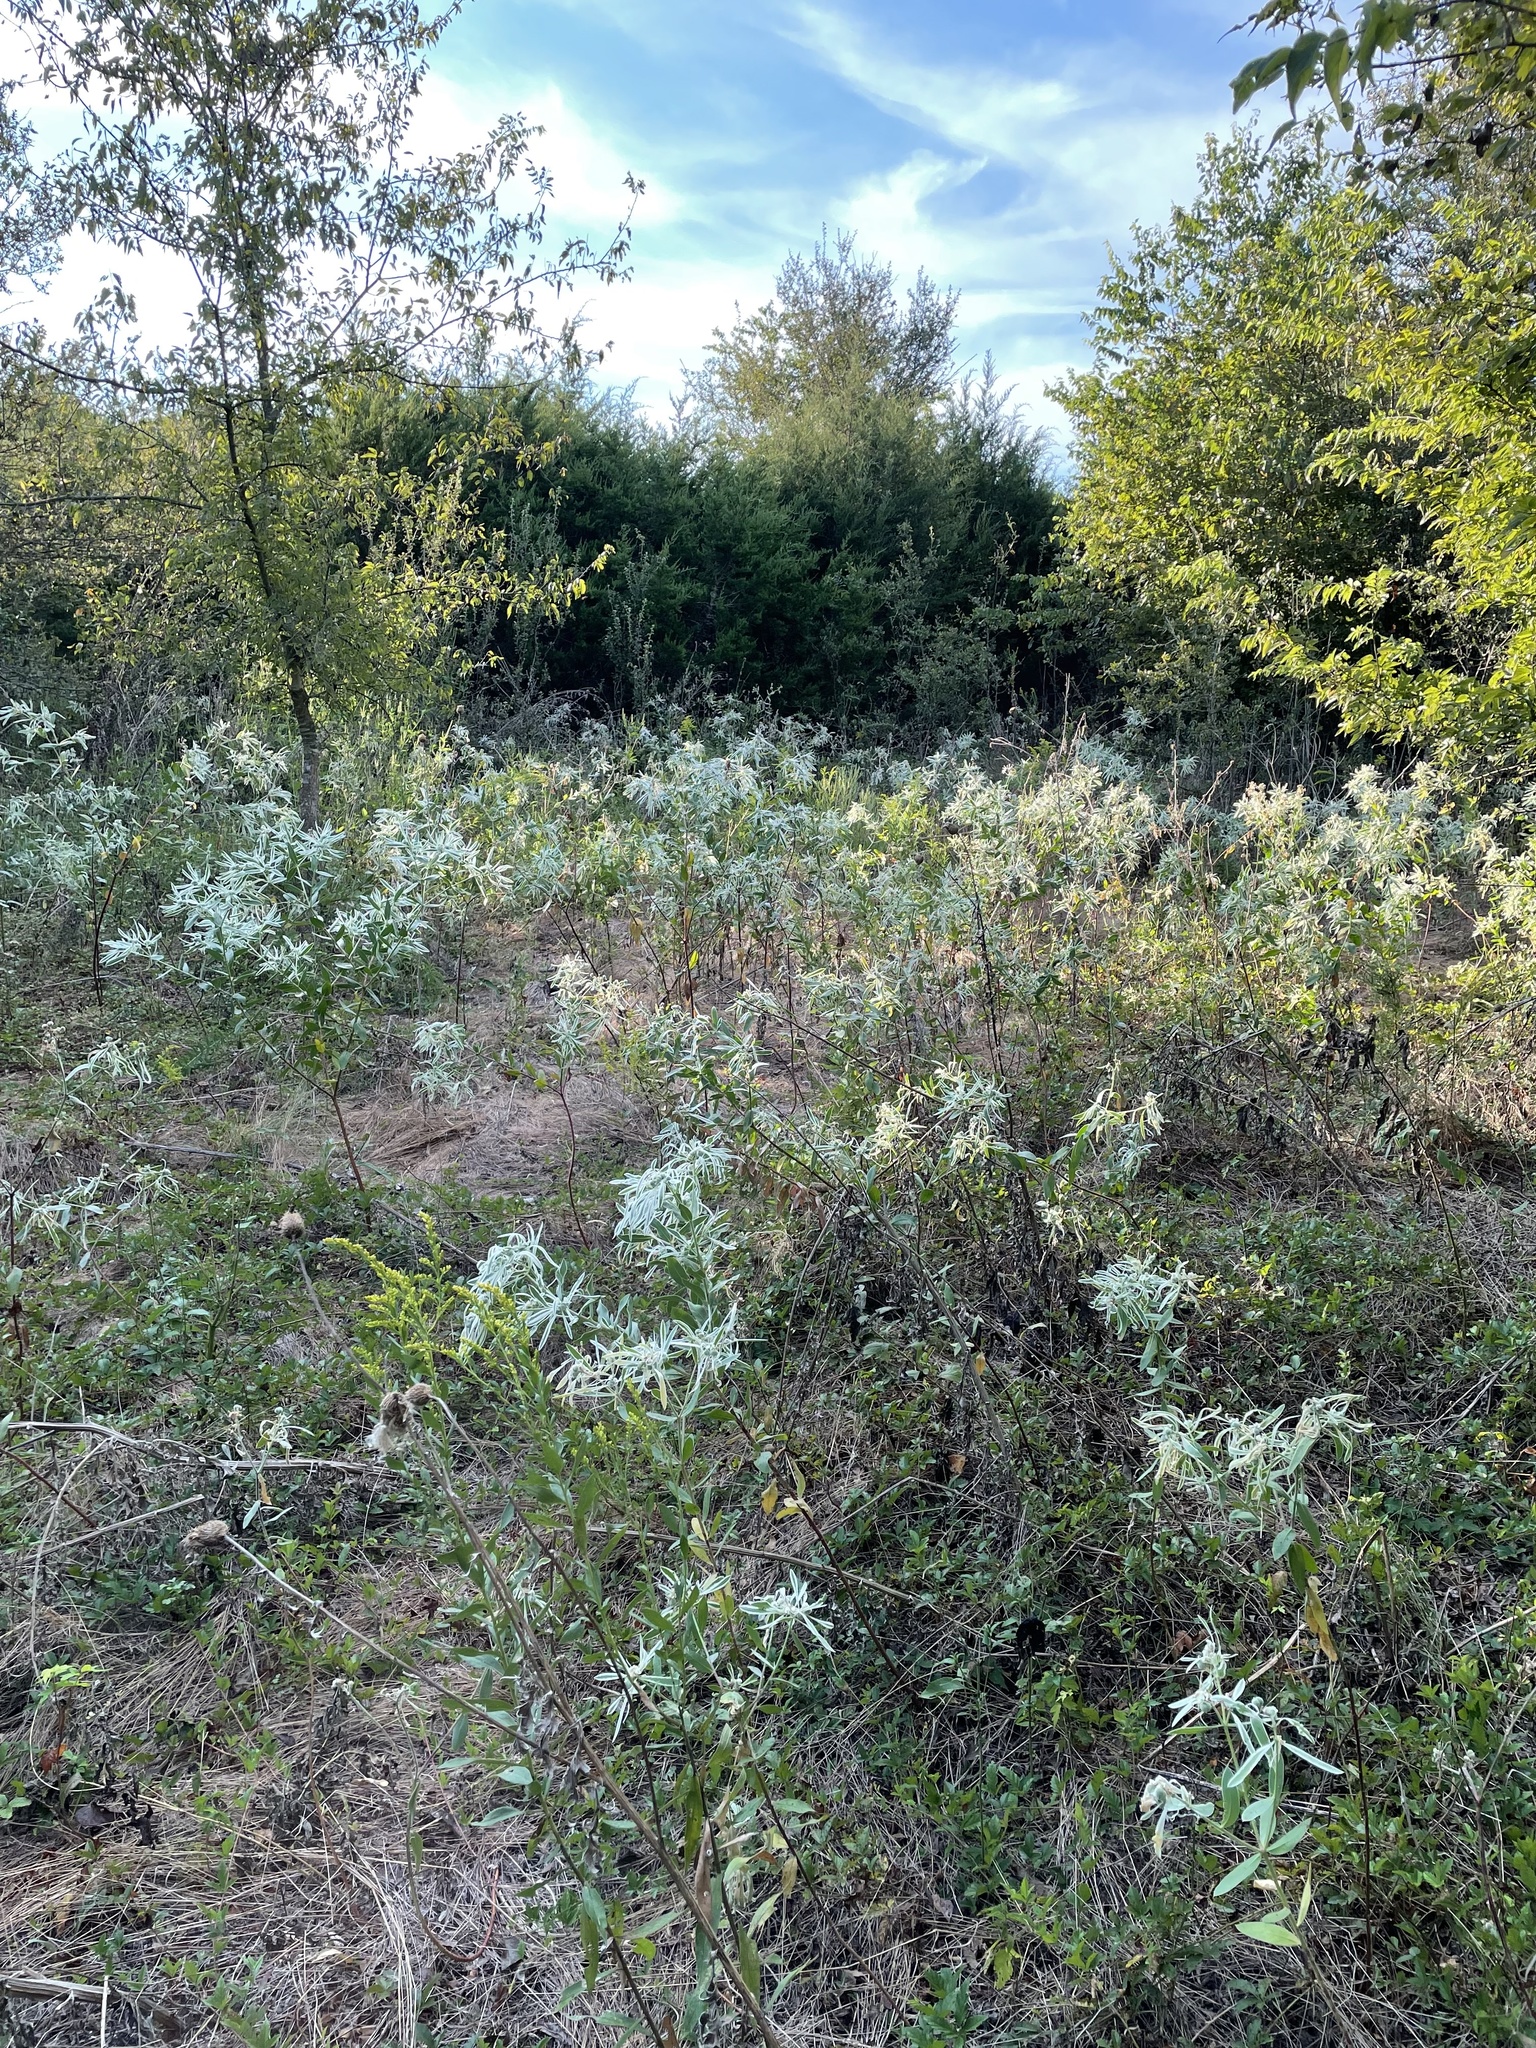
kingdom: Plantae
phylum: Tracheophyta
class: Magnoliopsida
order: Malpighiales
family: Euphorbiaceae
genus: Euphorbia
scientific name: Euphorbia bicolor
